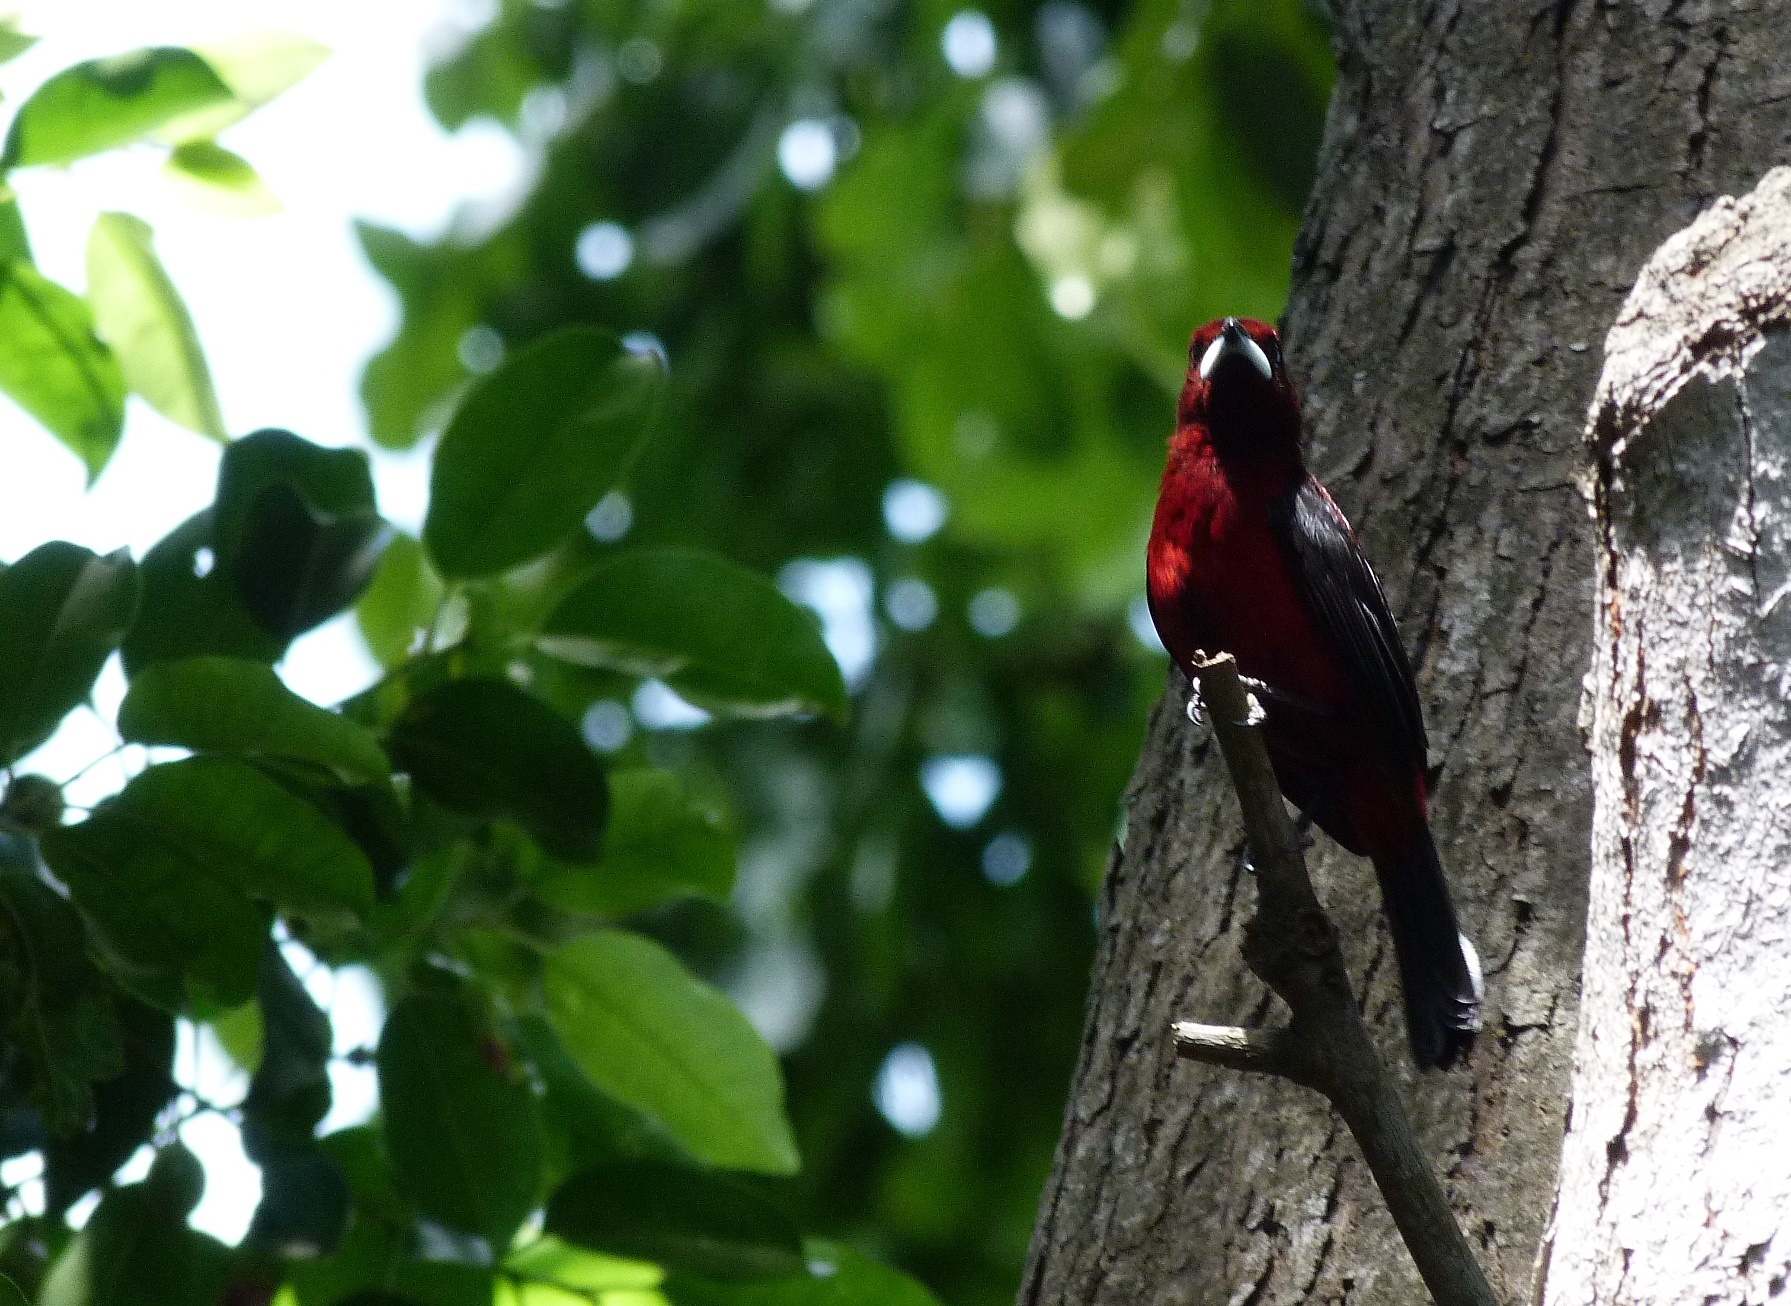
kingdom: Animalia
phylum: Chordata
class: Aves
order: Passeriformes
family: Thraupidae
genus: Ramphocelus
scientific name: Ramphocelus dimidiatus
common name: Crimson-backed tanager
